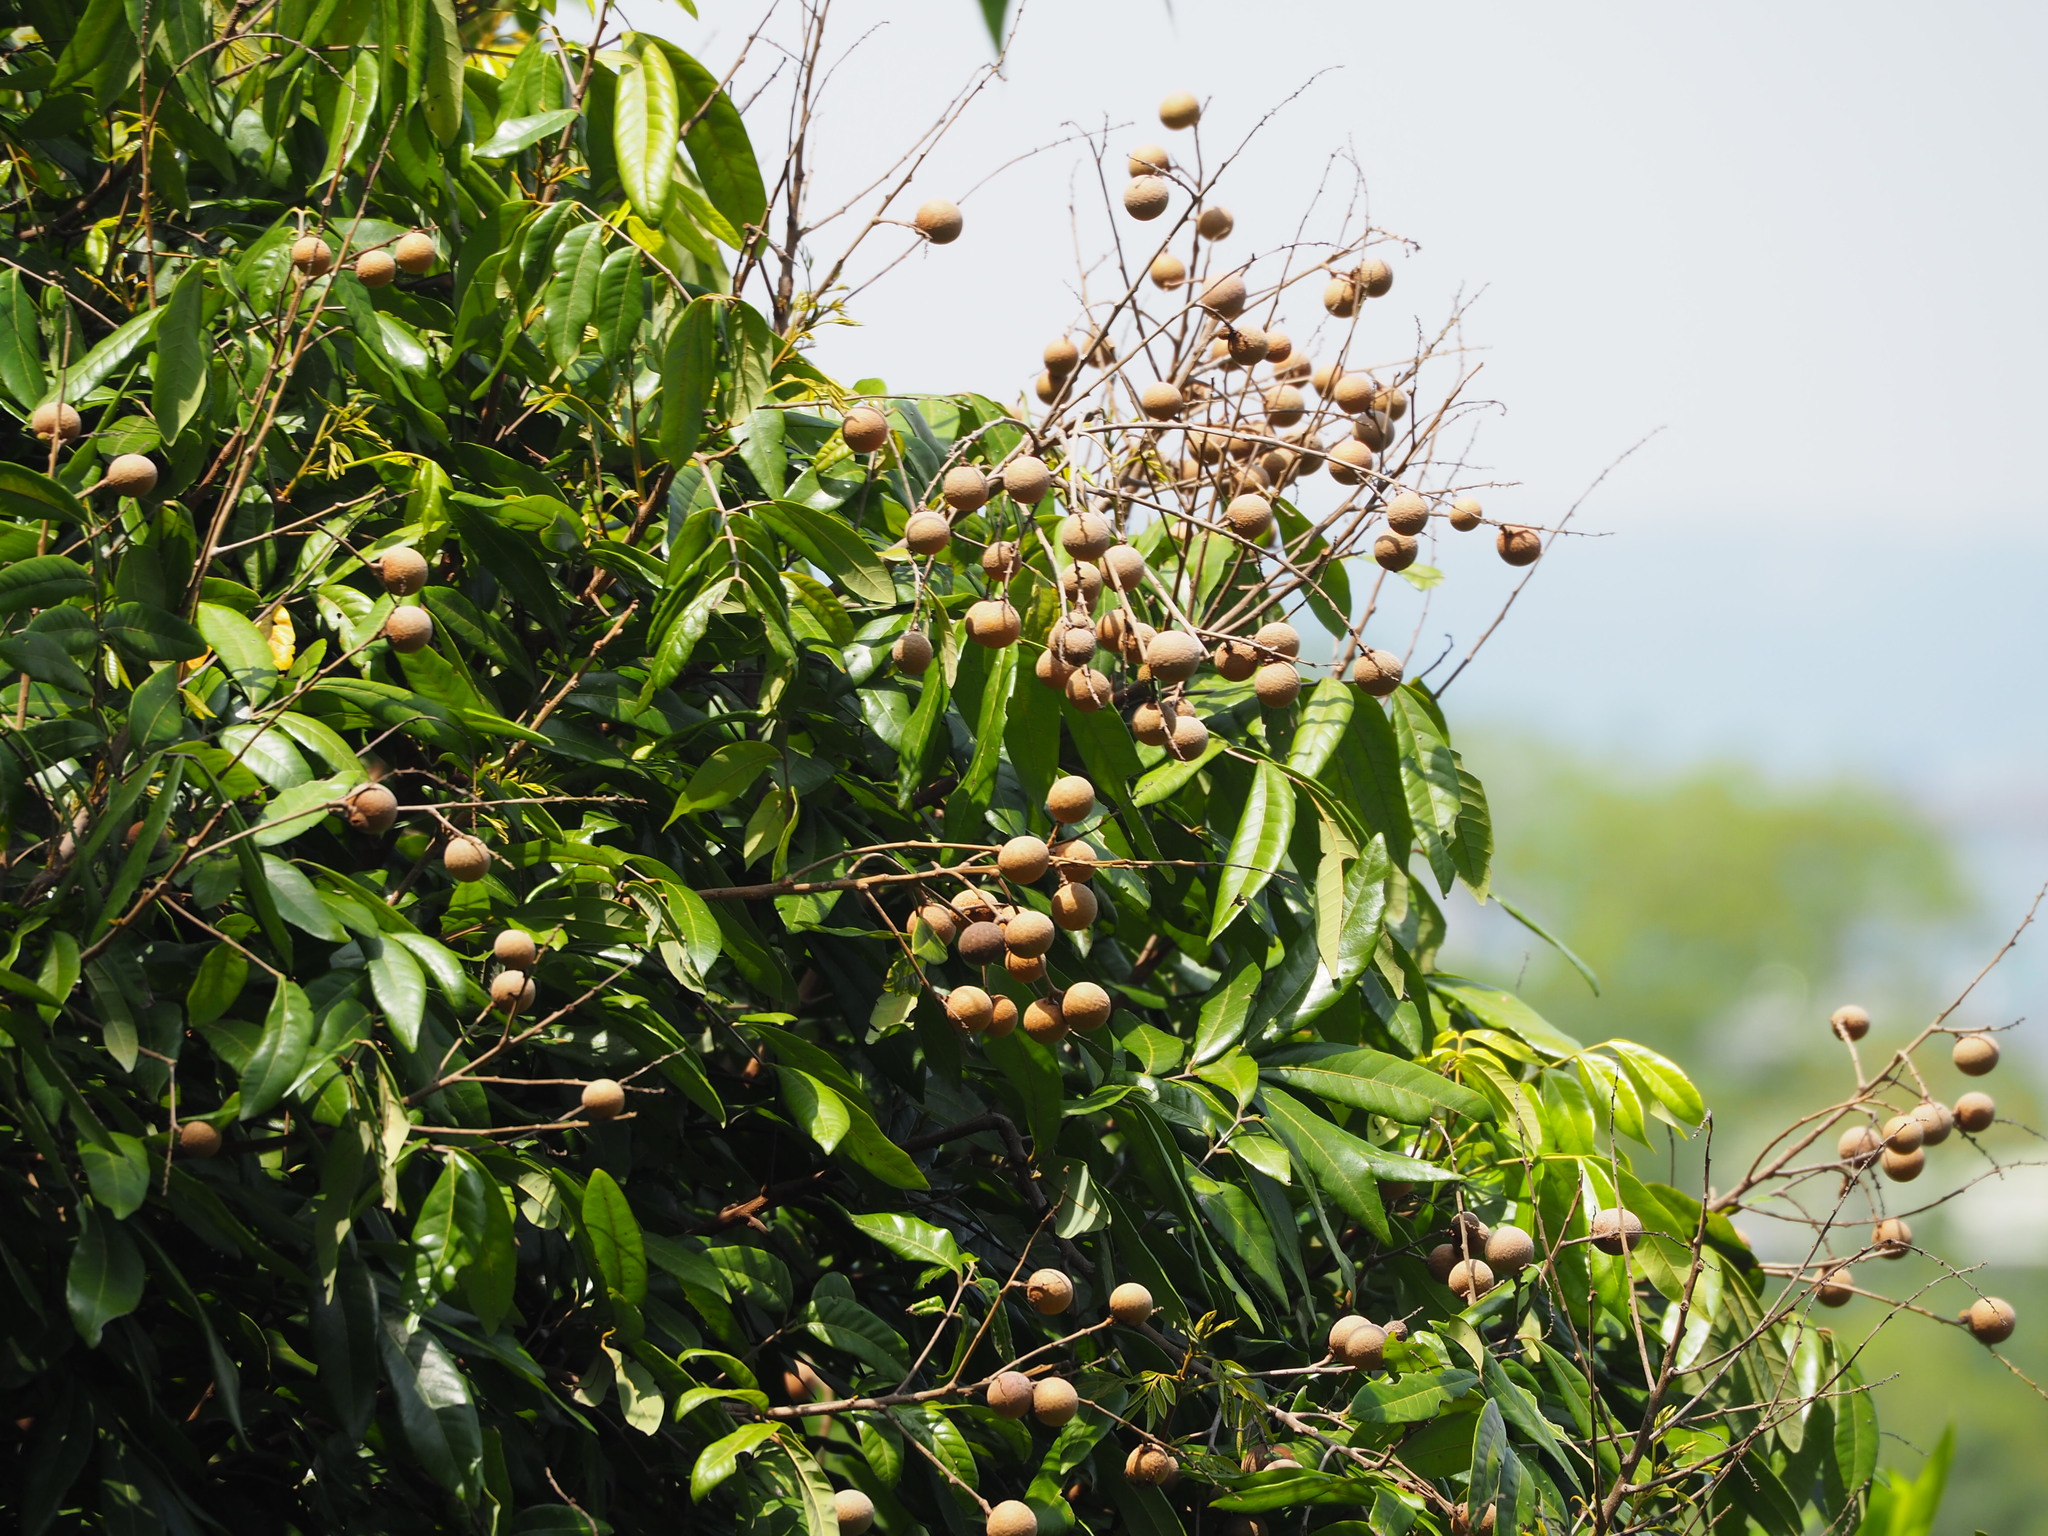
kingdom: Plantae
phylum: Tracheophyta
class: Magnoliopsida
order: Sapindales
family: Sapindaceae
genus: Dimocarpus
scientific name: Dimocarpus longan
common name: Longan
